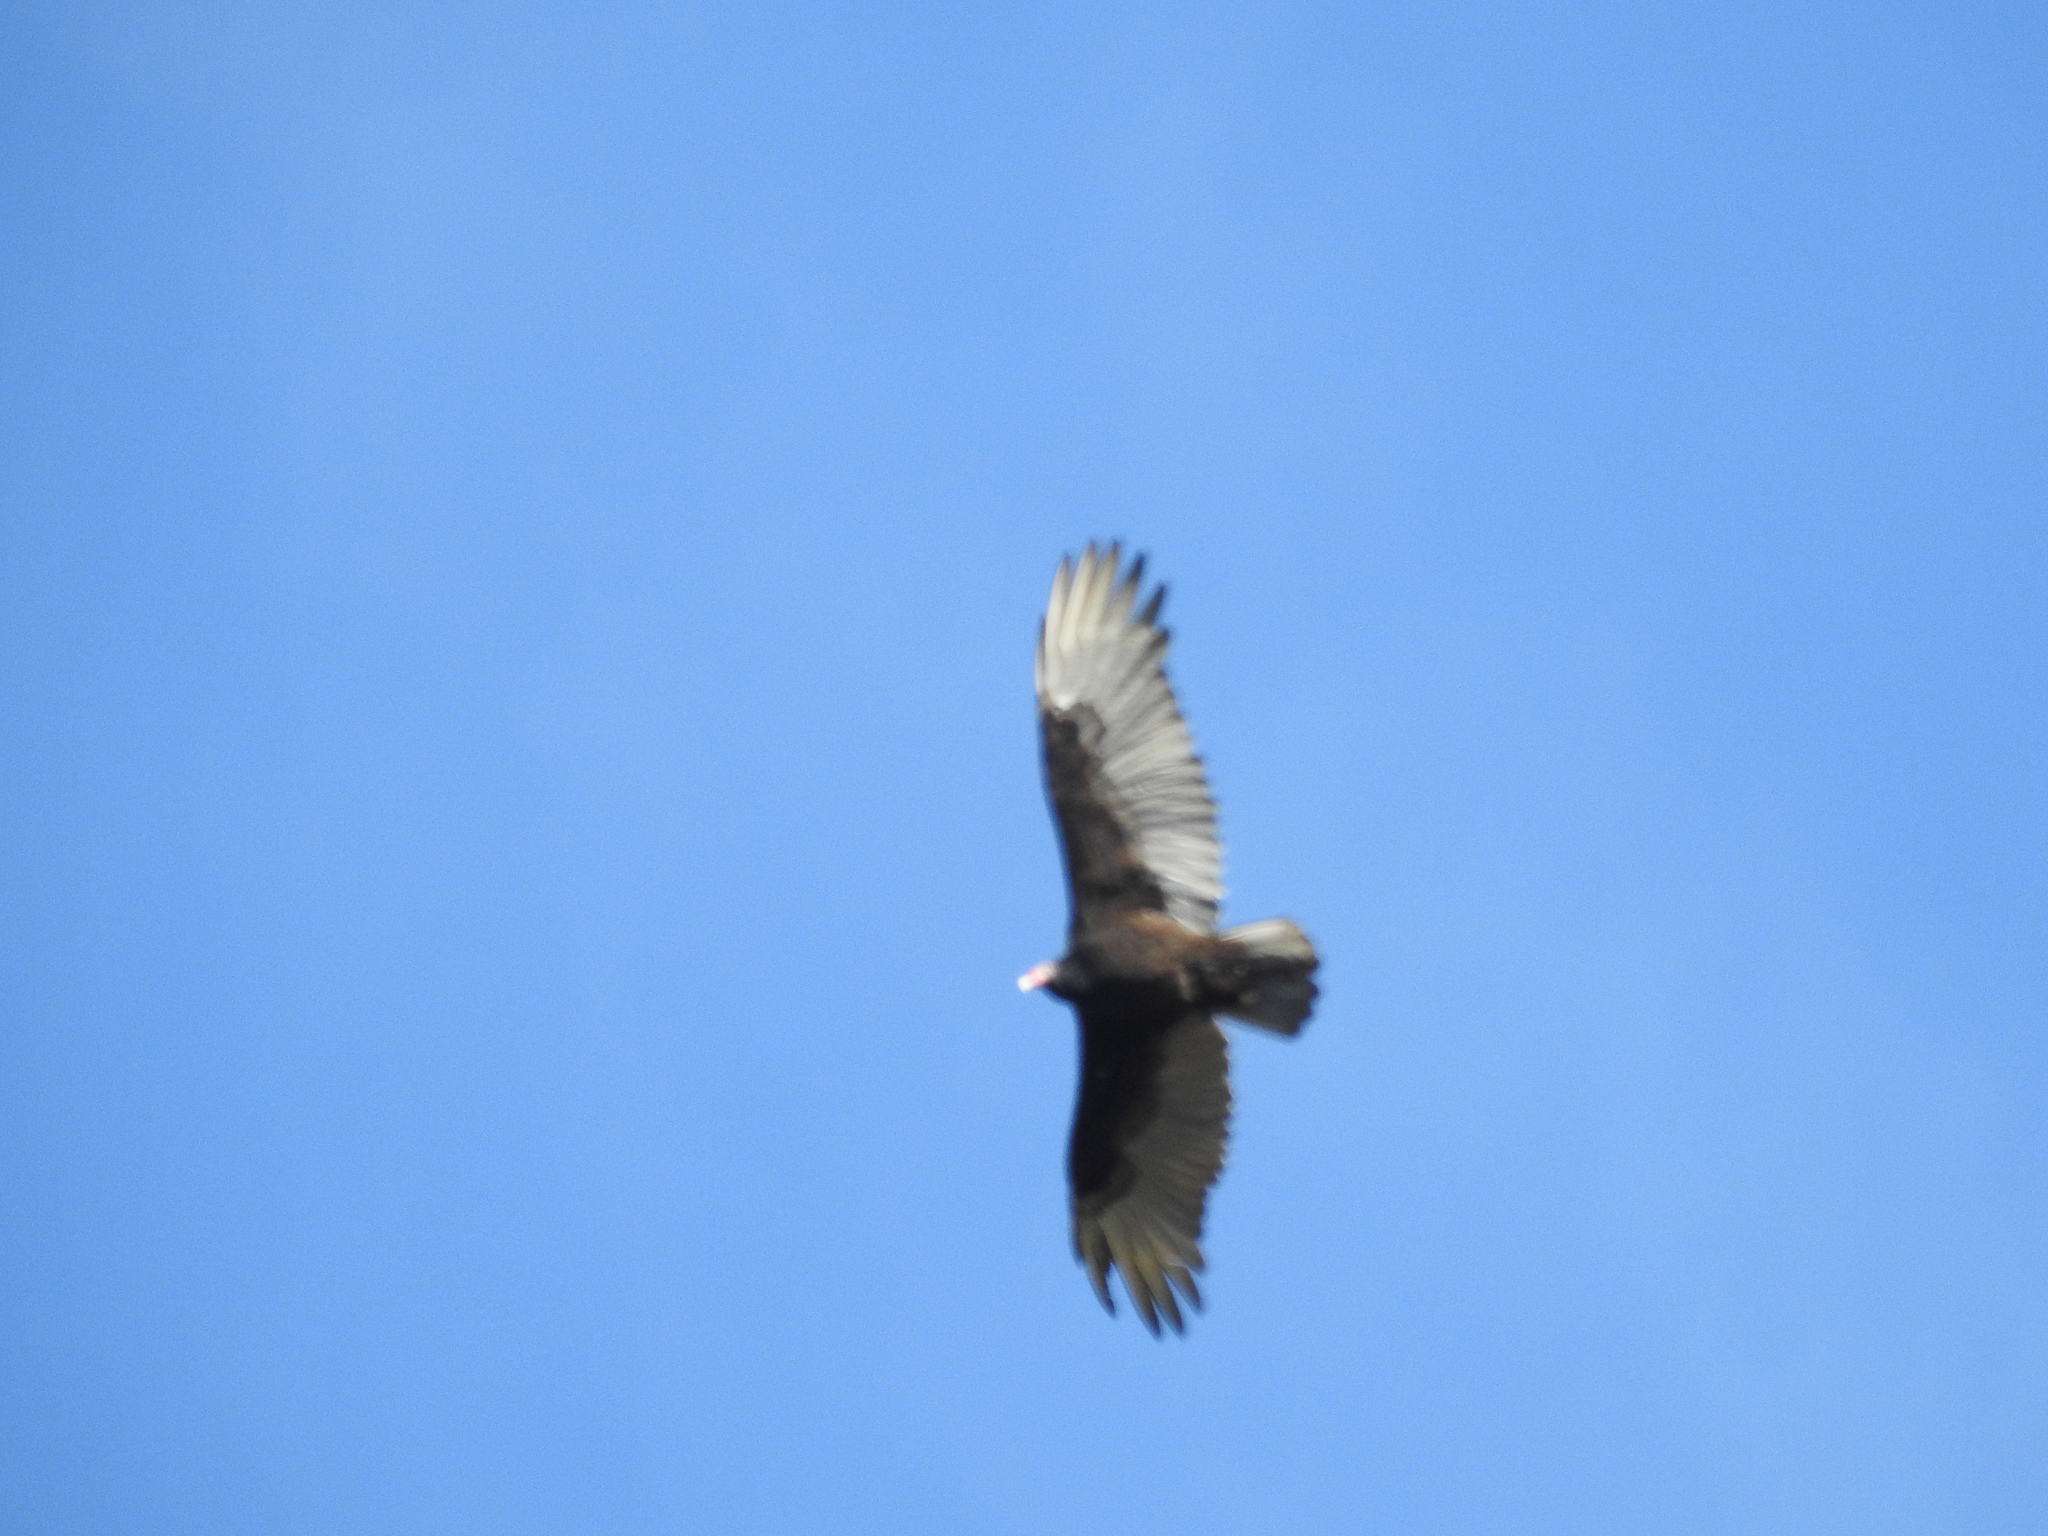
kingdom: Animalia
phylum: Chordata
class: Aves
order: Accipitriformes
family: Cathartidae
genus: Cathartes
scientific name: Cathartes aura
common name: Turkey vulture
